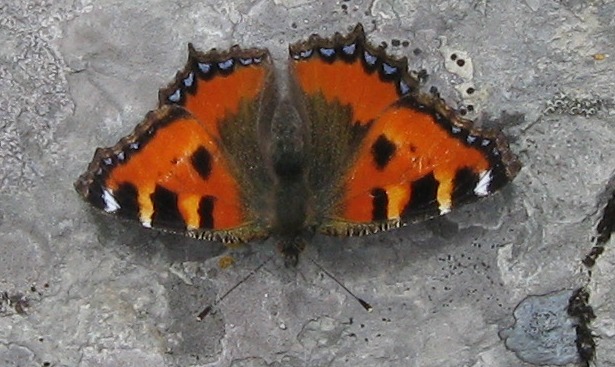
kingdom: Animalia
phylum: Arthropoda
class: Insecta
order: Lepidoptera
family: Nymphalidae
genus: Aglais
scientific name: Aglais urticae
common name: Small tortoiseshell
